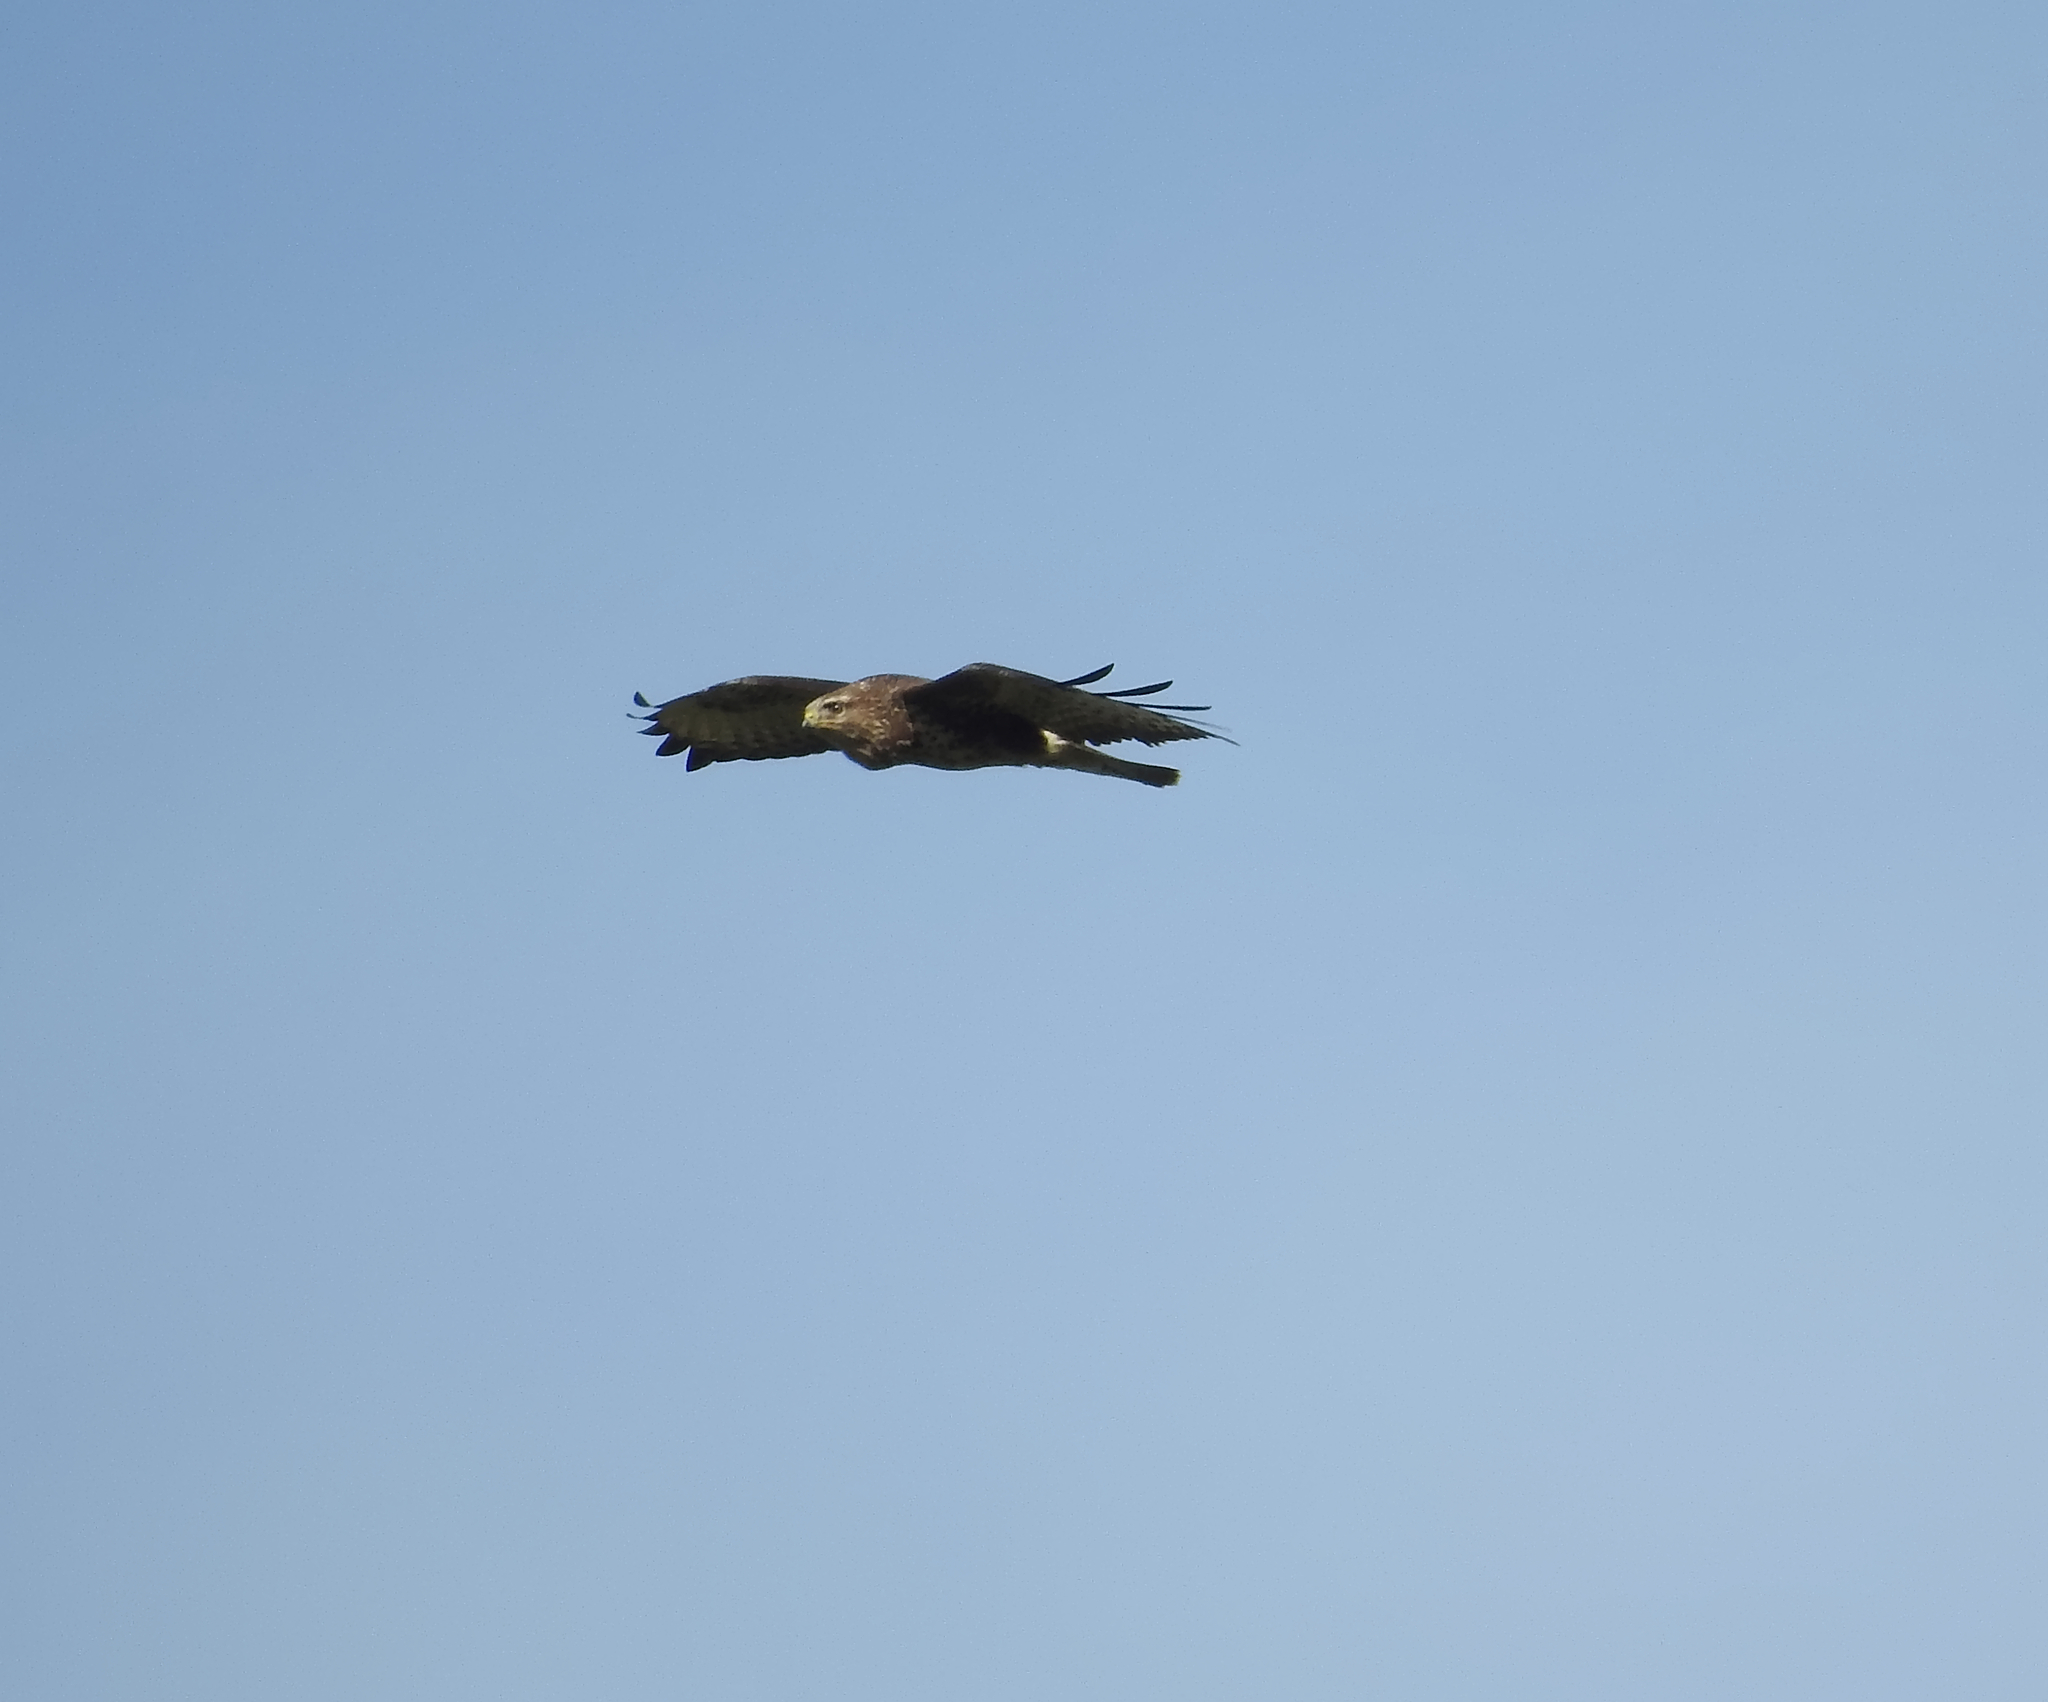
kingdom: Animalia
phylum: Chordata
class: Aves
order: Accipitriformes
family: Accipitridae
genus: Buteo
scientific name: Buteo buteo
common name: Common buzzard
